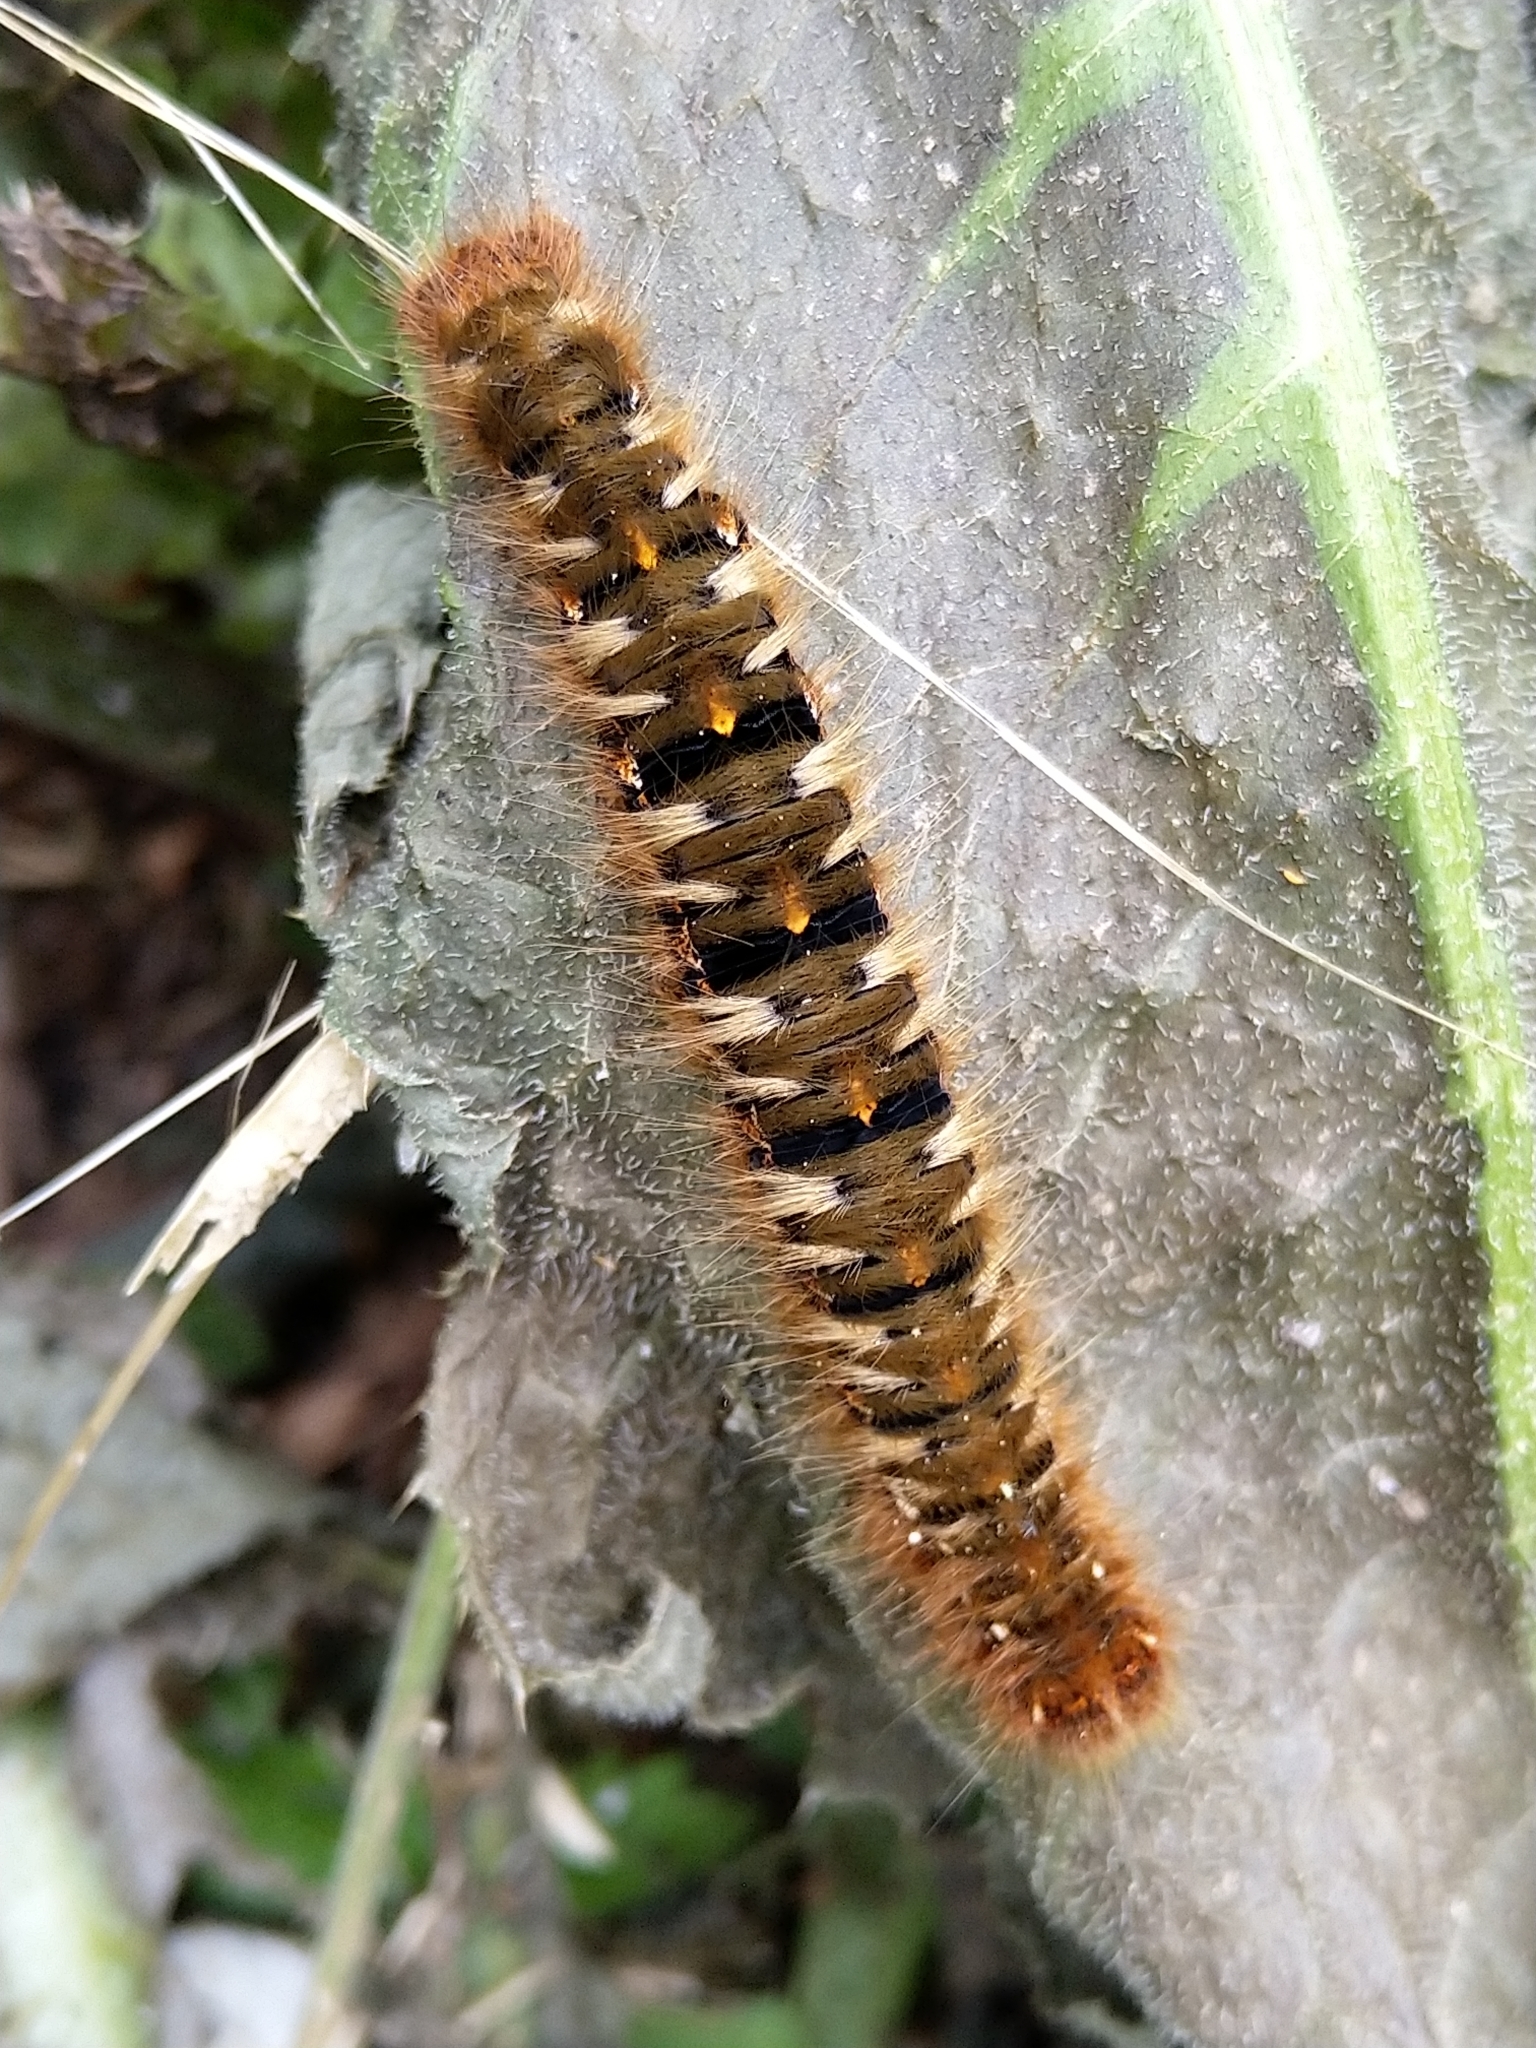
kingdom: Animalia
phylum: Arthropoda
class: Insecta
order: Lepidoptera
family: Lasiocampidae
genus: Lasiocampa
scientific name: Lasiocampa quercus
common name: Oak eggar
